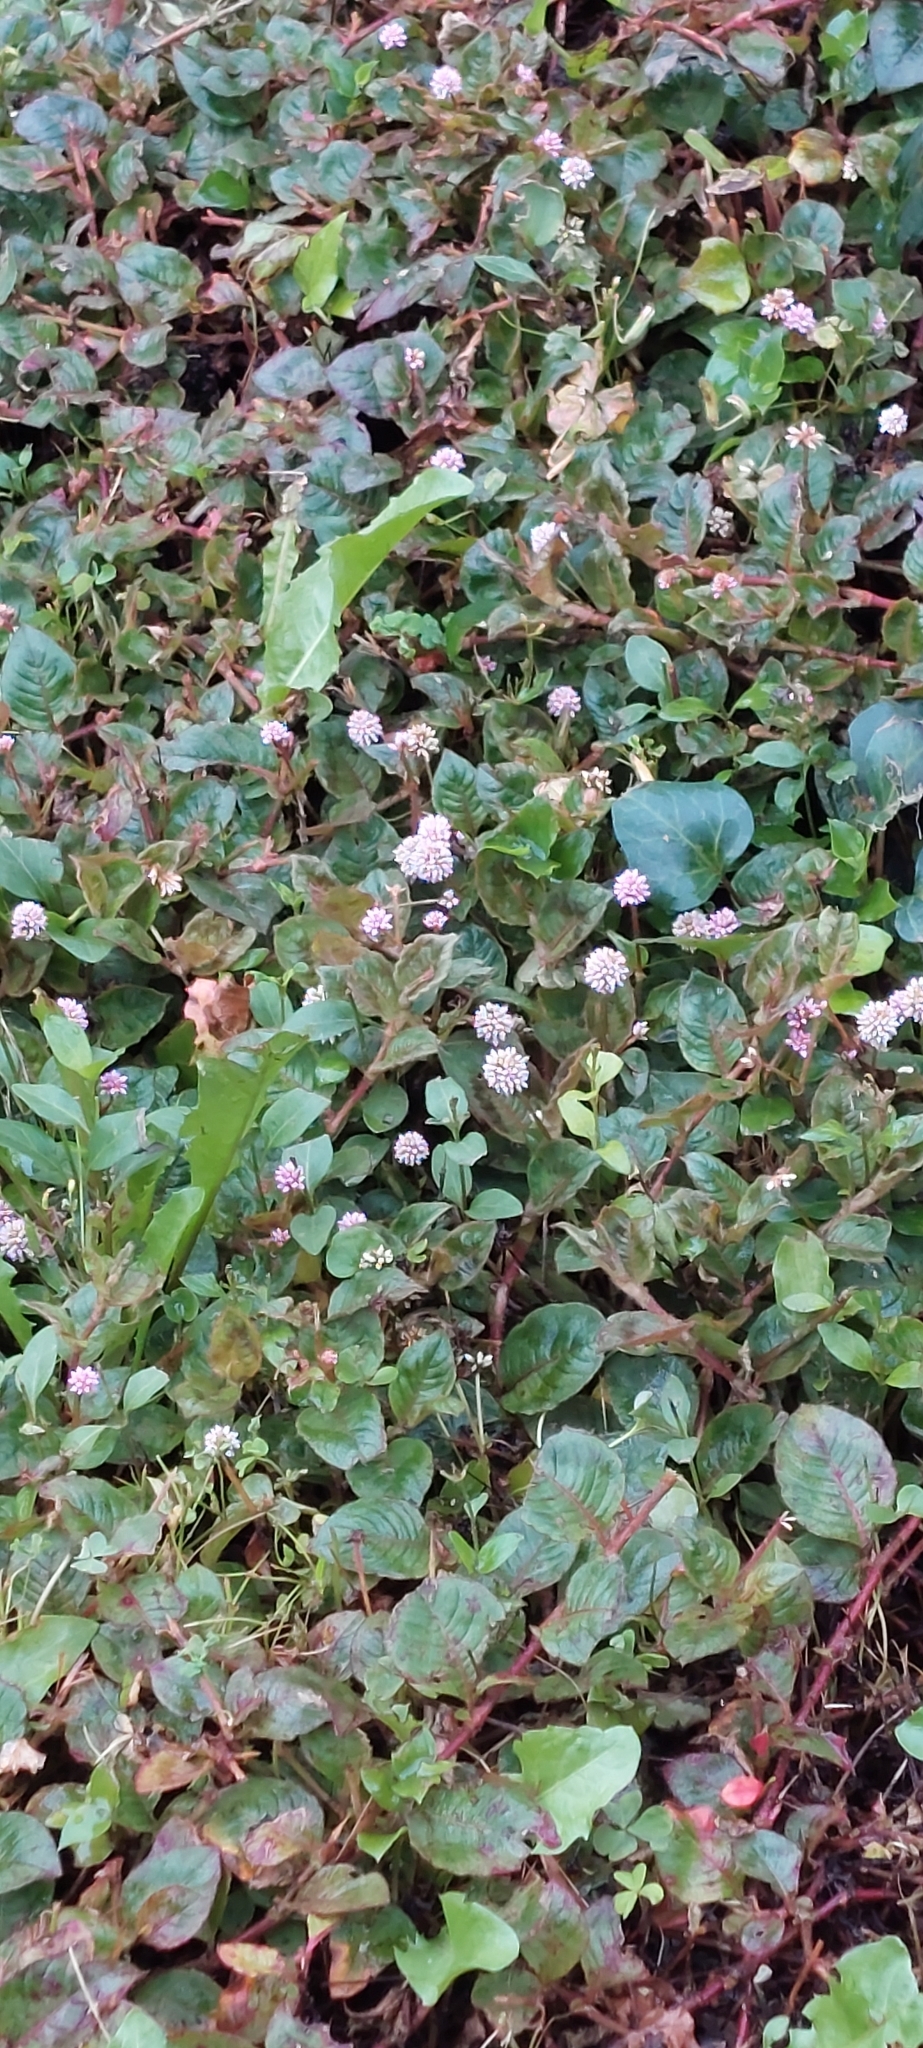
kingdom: Plantae
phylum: Tracheophyta
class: Magnoliopsida
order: Caryophyllales
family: Polygonaceae
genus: Persicaria
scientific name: Persicaria capitata
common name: Pinkhead smartweed
